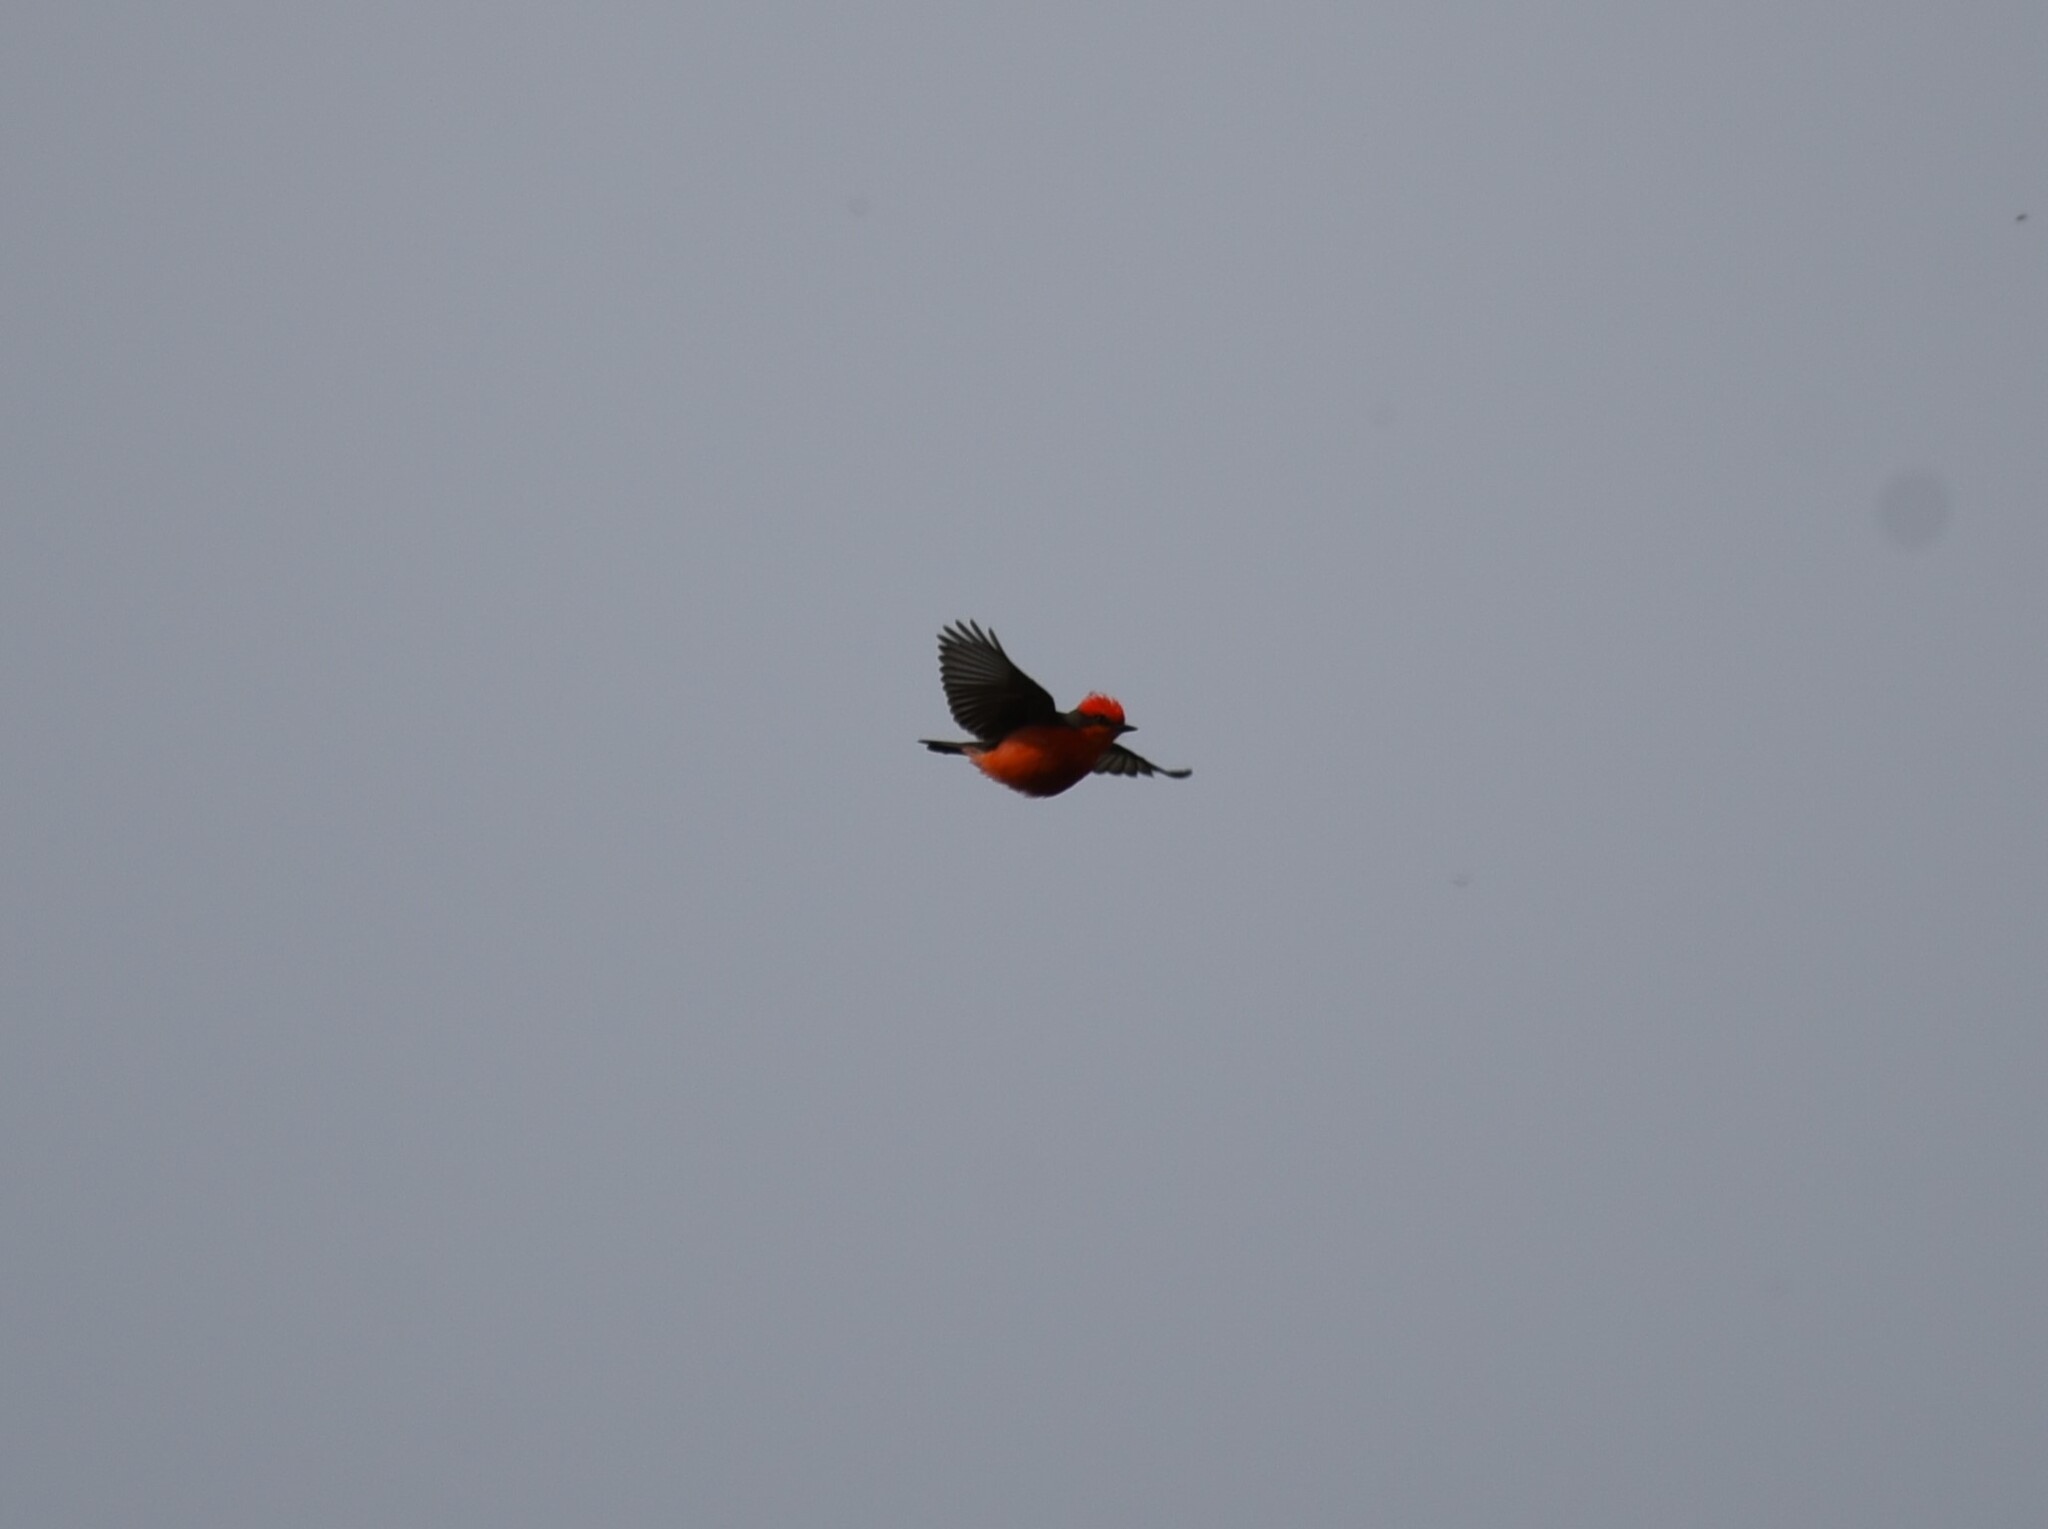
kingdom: Animalia
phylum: Chordata
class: Aves
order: Passeriformes
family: Tyrannidae
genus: Pyrocephalus
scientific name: Pyrocephalus rubinus
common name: Vermilion flycatcher
